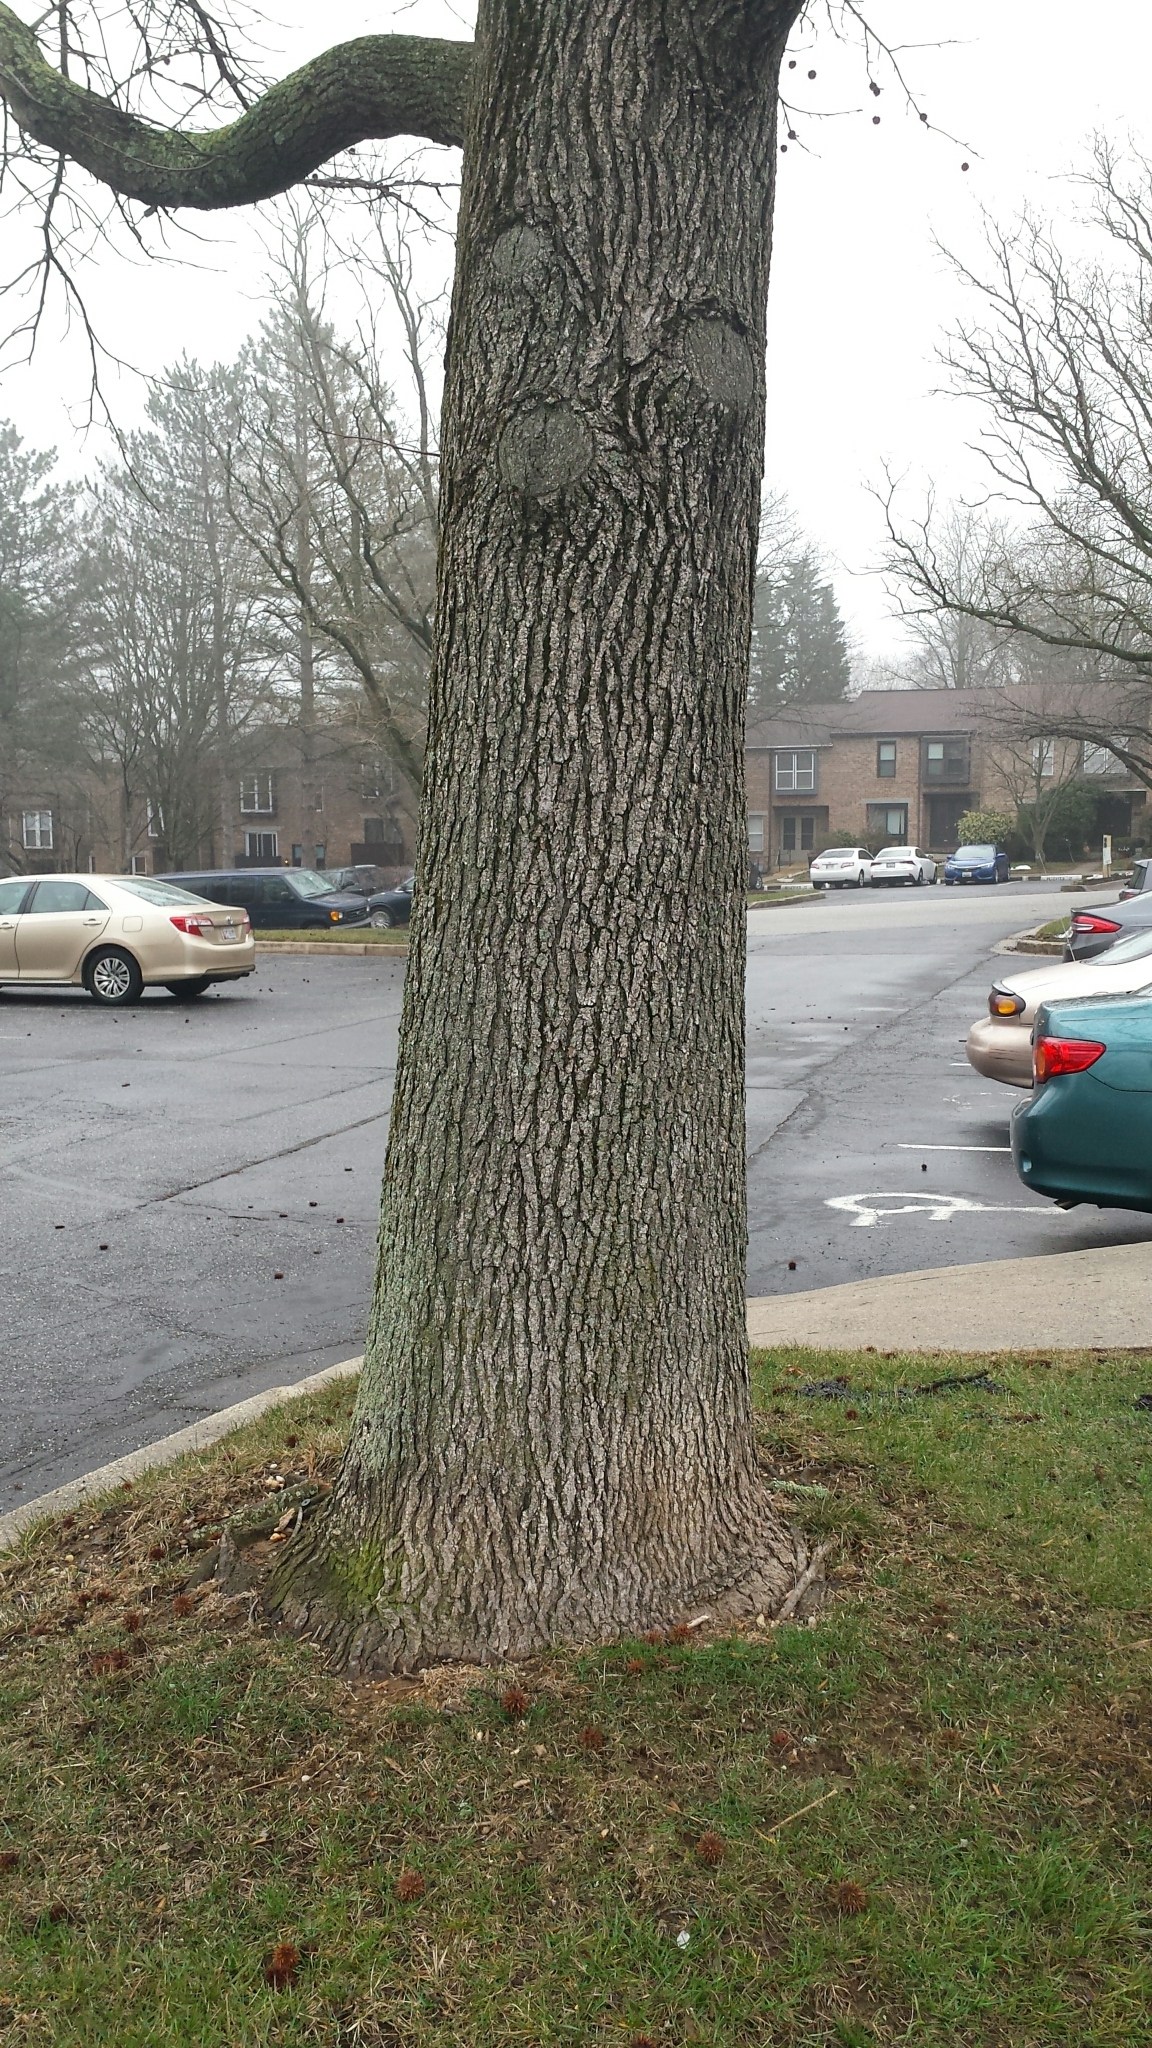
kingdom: Plantae
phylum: Tracheophyta
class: Magnoliopsida
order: Saxifragales
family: Altingiaceae
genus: Liquidambar
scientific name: Liquidambar styraciflua
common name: Sweet gum
